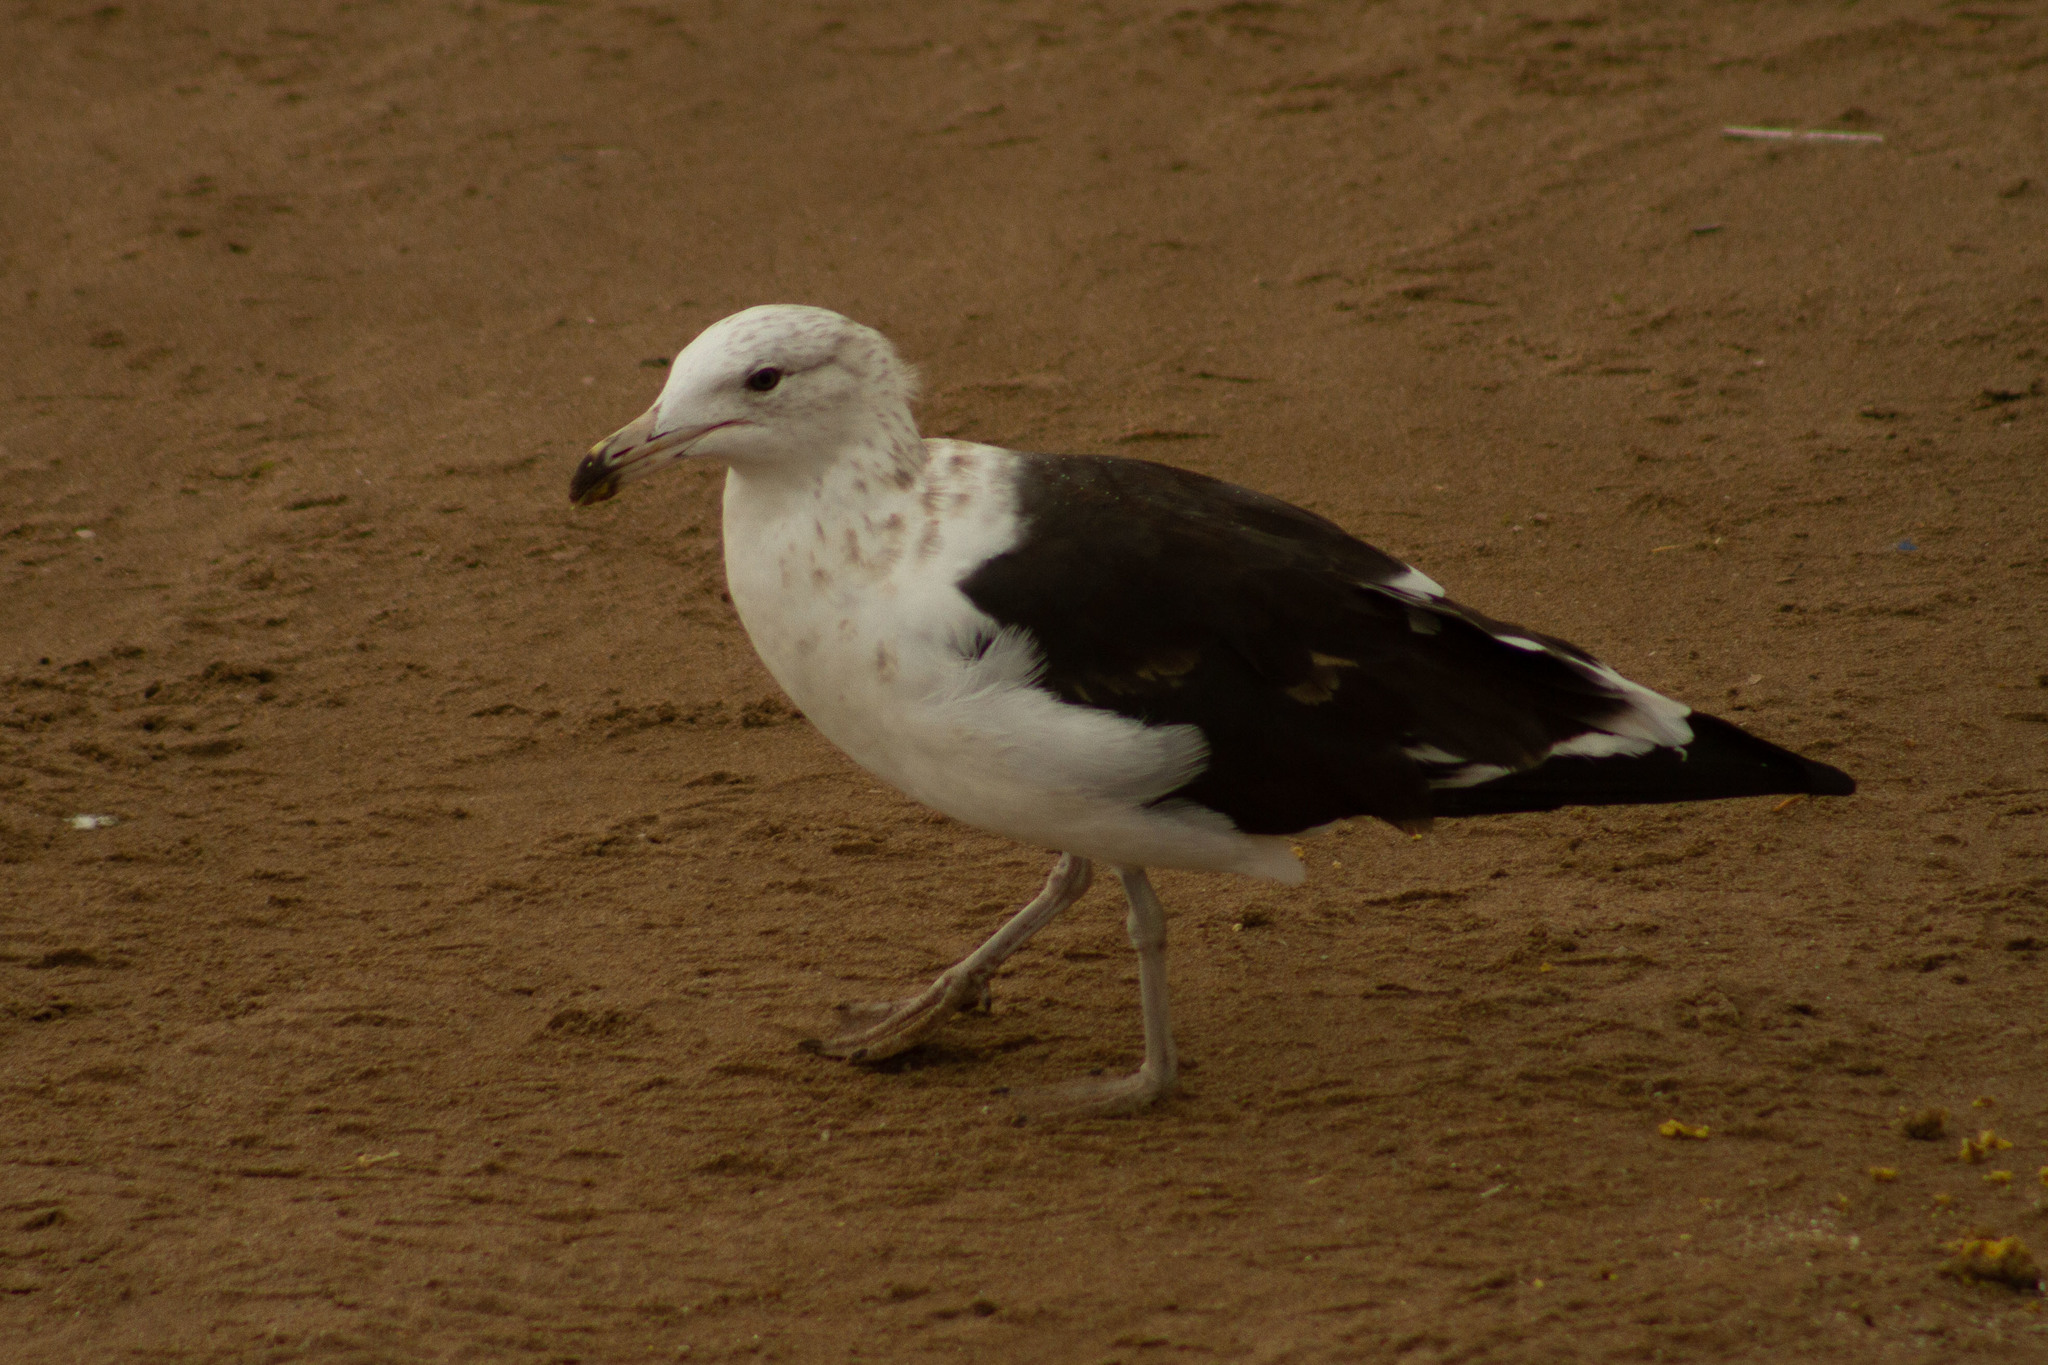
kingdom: Animalia
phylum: Chordata
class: Aves
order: Charadriiformes
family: Laridae
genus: Larus
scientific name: Larus dominicanus
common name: Kelp gull
